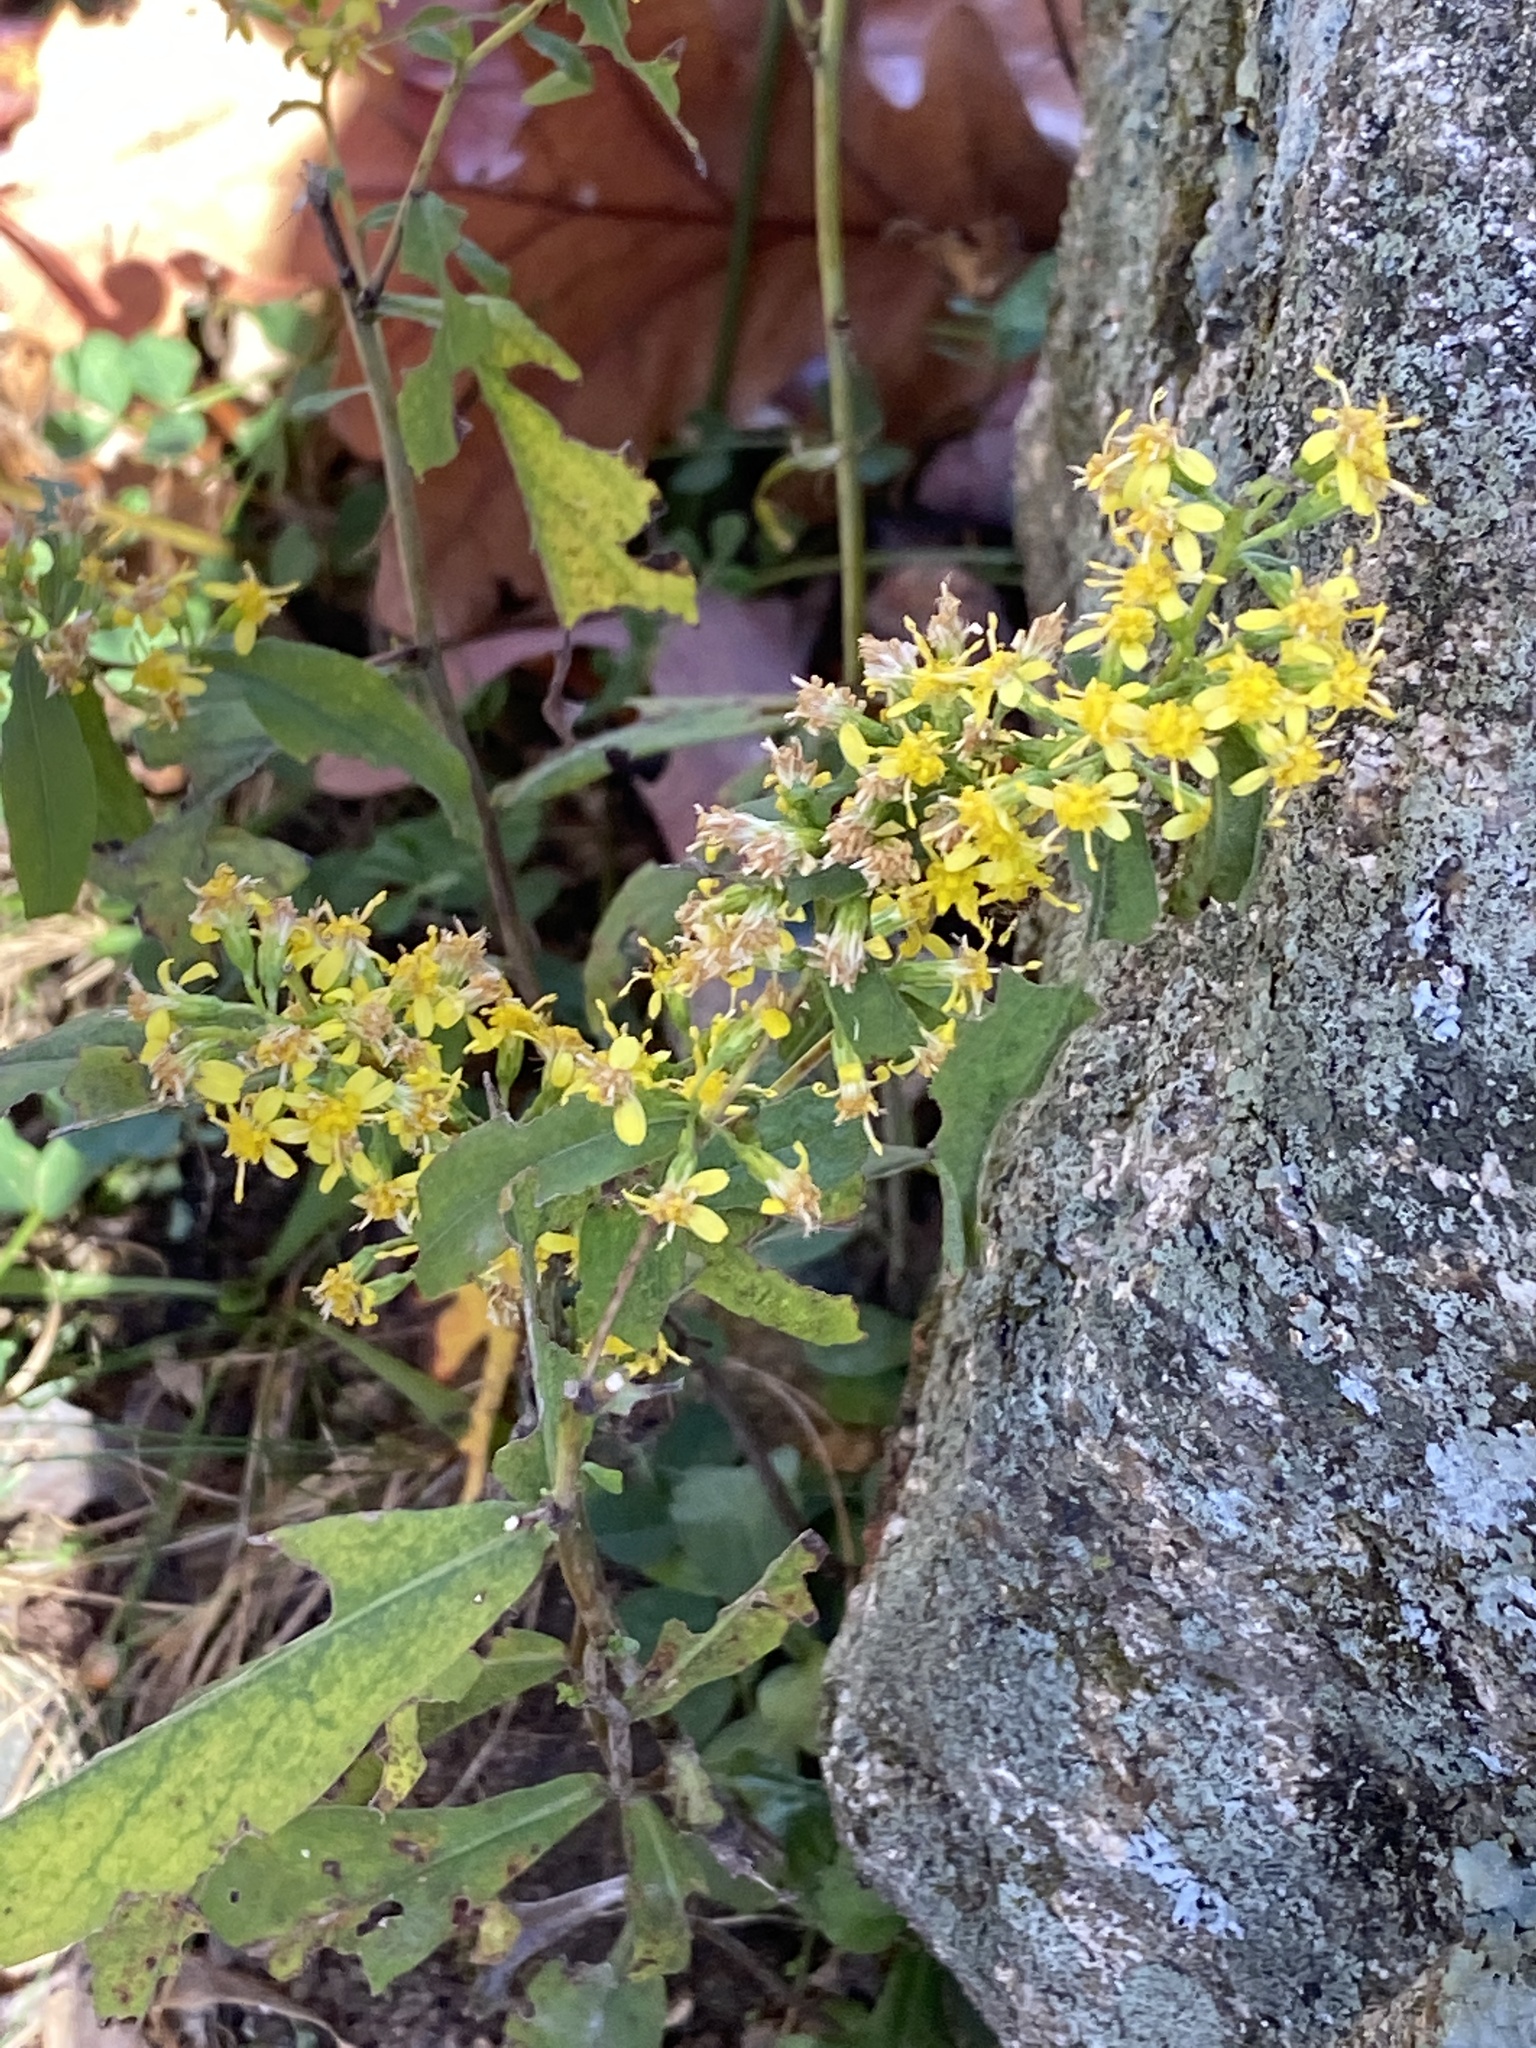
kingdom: Plantae
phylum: Tracheophyta
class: Magnoliopsida
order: Asterales
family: Asteraceae
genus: Solidago
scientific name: Solidago caesia
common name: Woodland goldenrod
